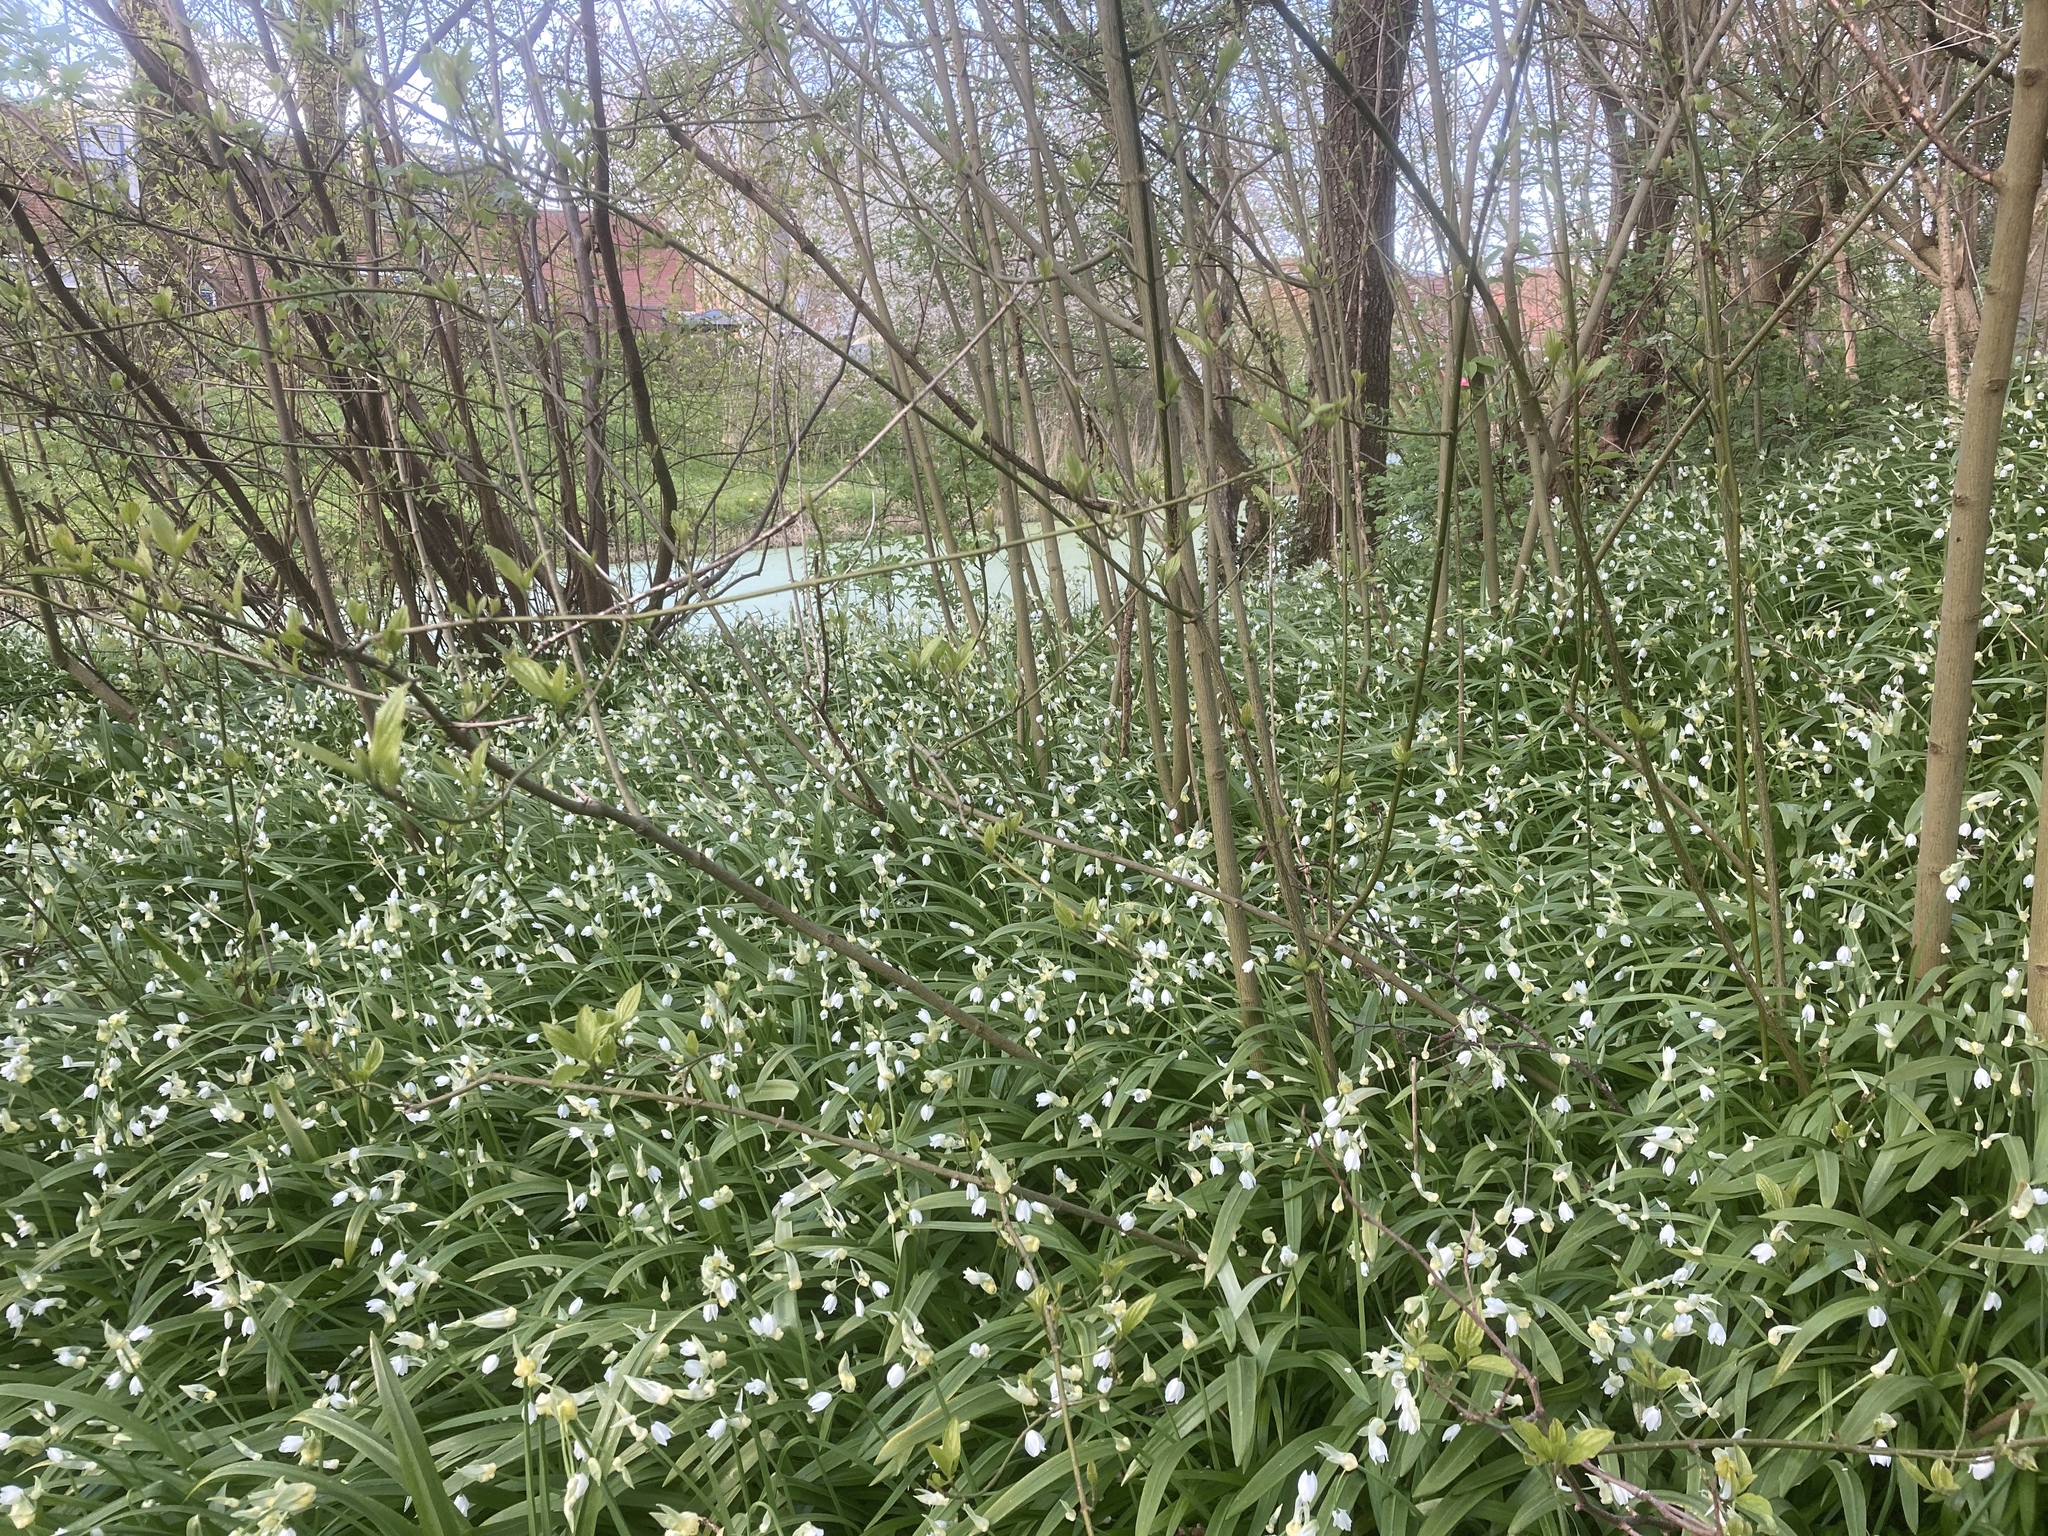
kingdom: Plantae
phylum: Tracheophyta
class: Liliopsida
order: Asparagales
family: Amaryllidaceae
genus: Allium
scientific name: Allium paradoxum
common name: Few-flowered garlic
